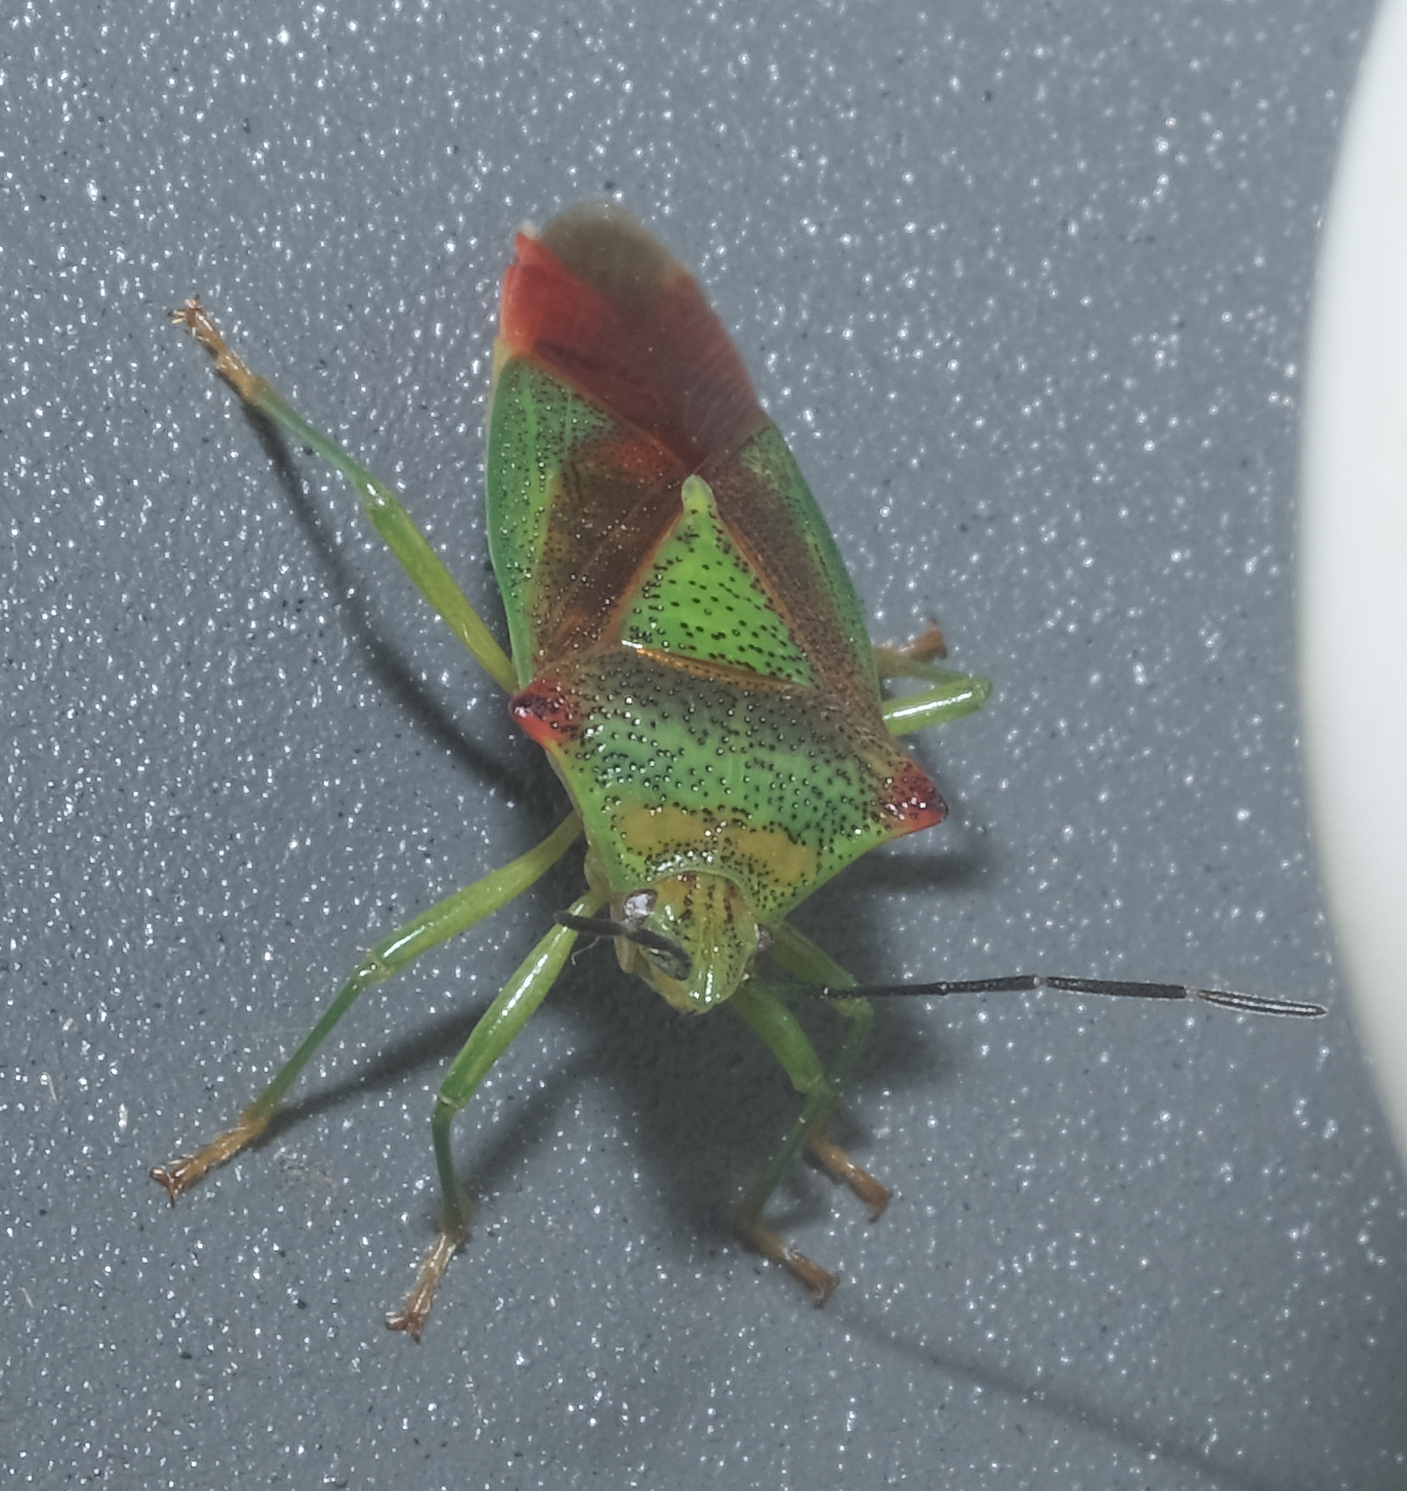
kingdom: Animalia
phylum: Arthropoda
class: Insecta
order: Hemiptera
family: Acanthosomatidae
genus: Acanthosoma
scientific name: Acanthosoma haemorrhoidale
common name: Hawthorn shieldbug
